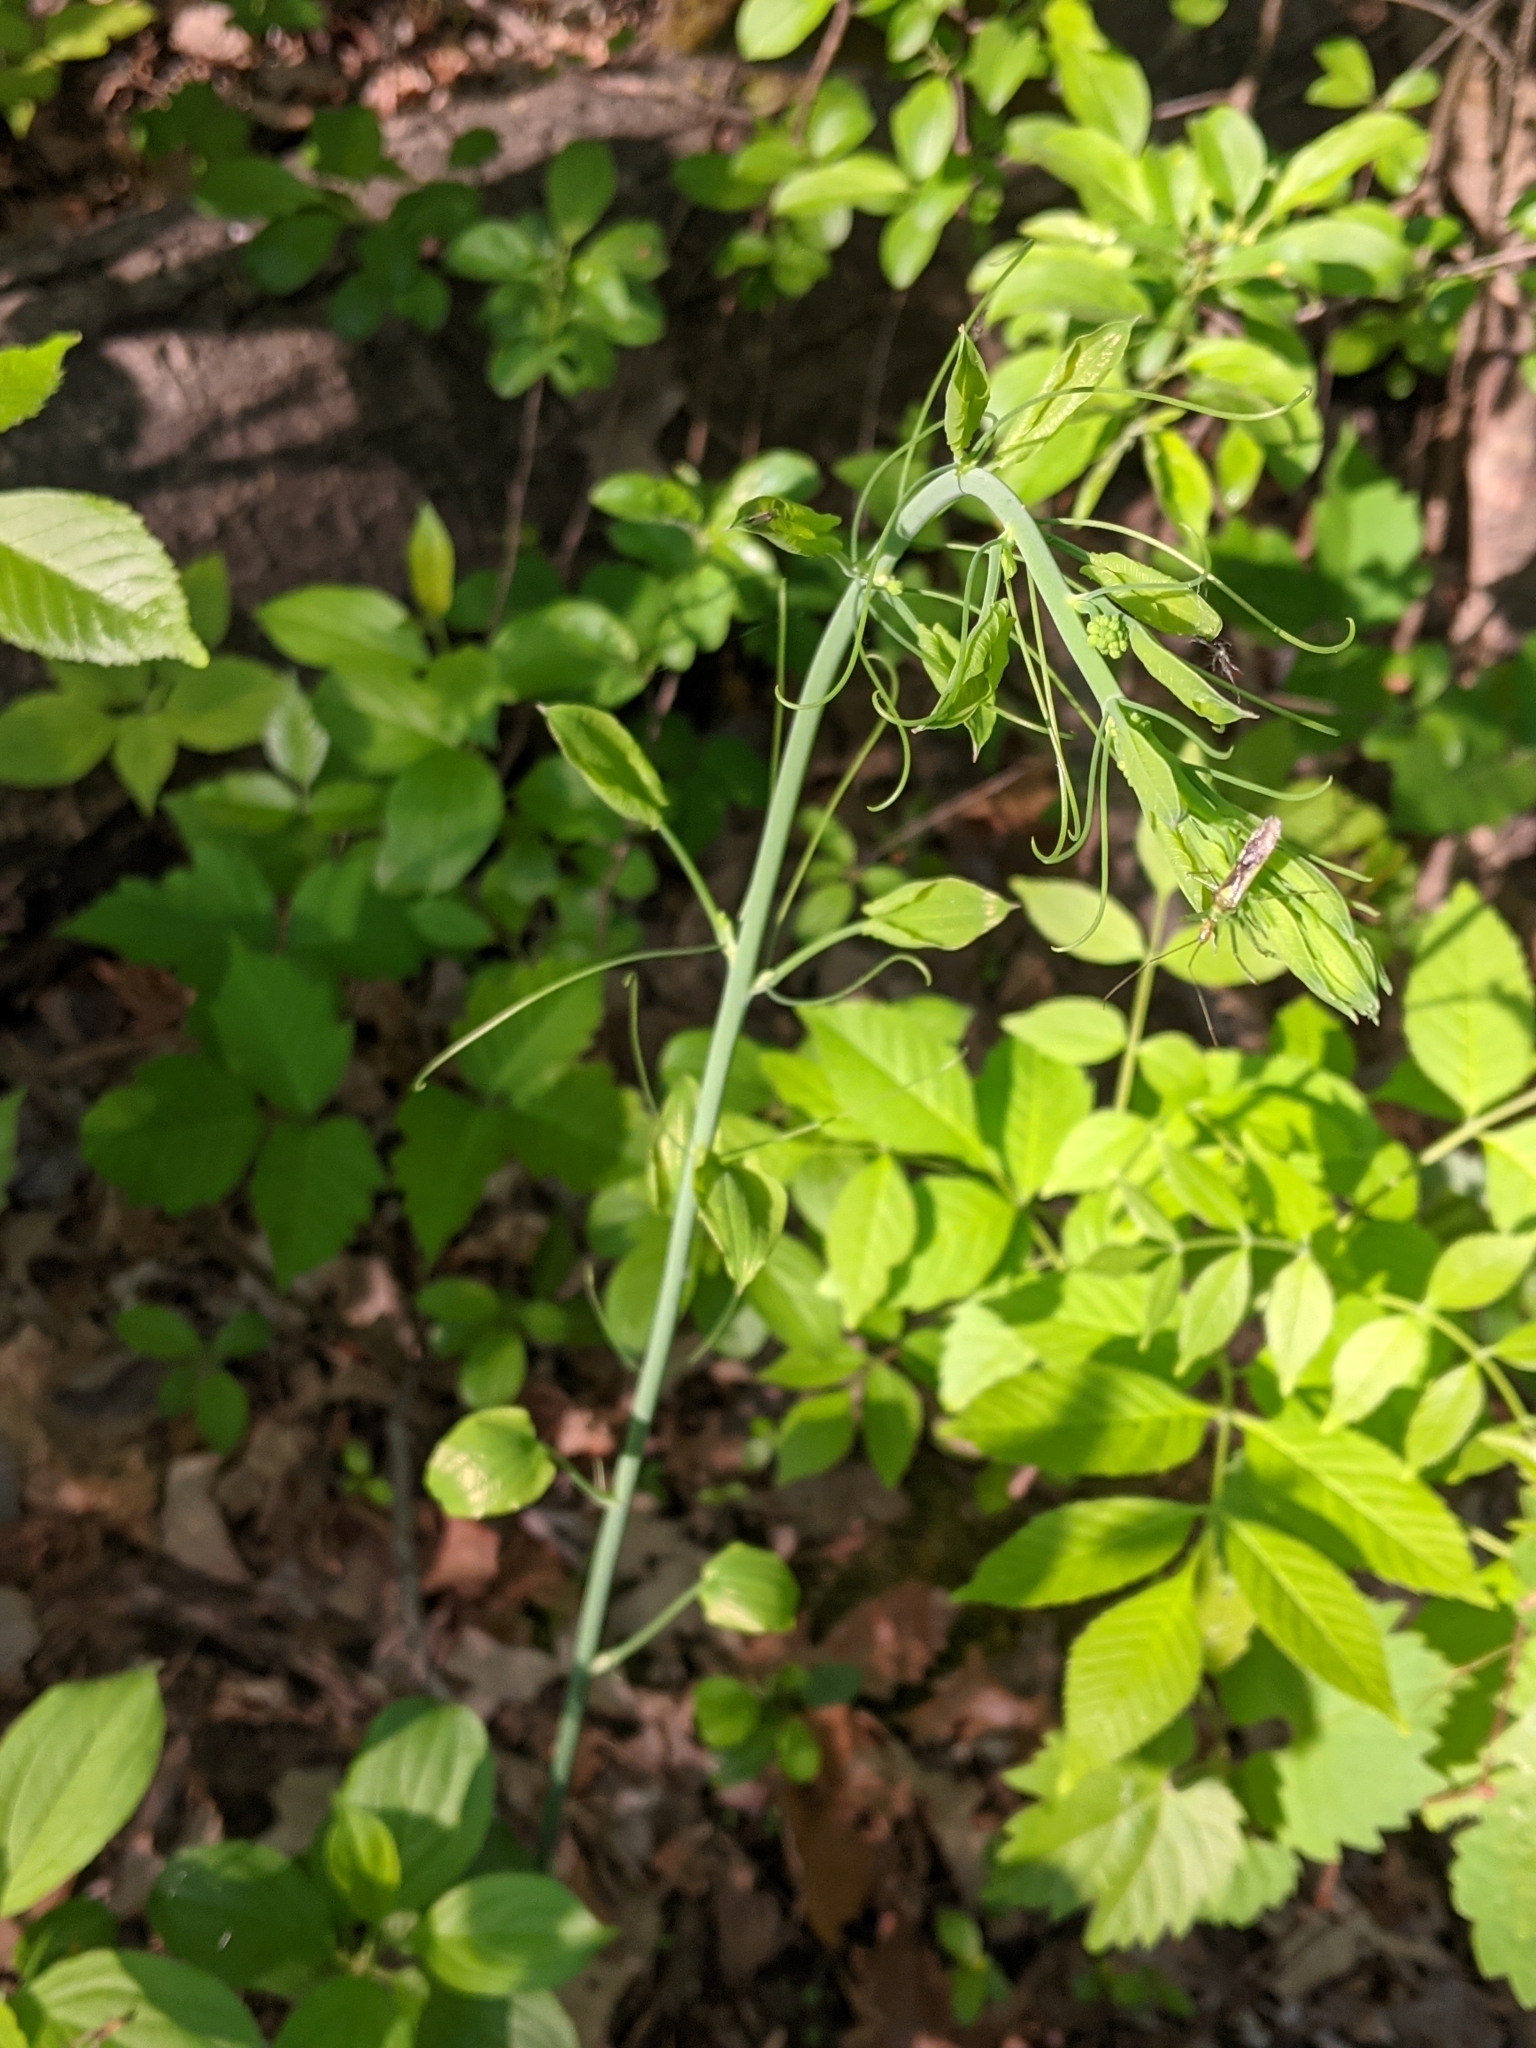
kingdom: Plantae
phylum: Tracheophyta
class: Liliopsida
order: Liliales
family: Smilacaceae
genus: Smilax
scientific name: Smilax herbacea
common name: Jacob's-ladder
